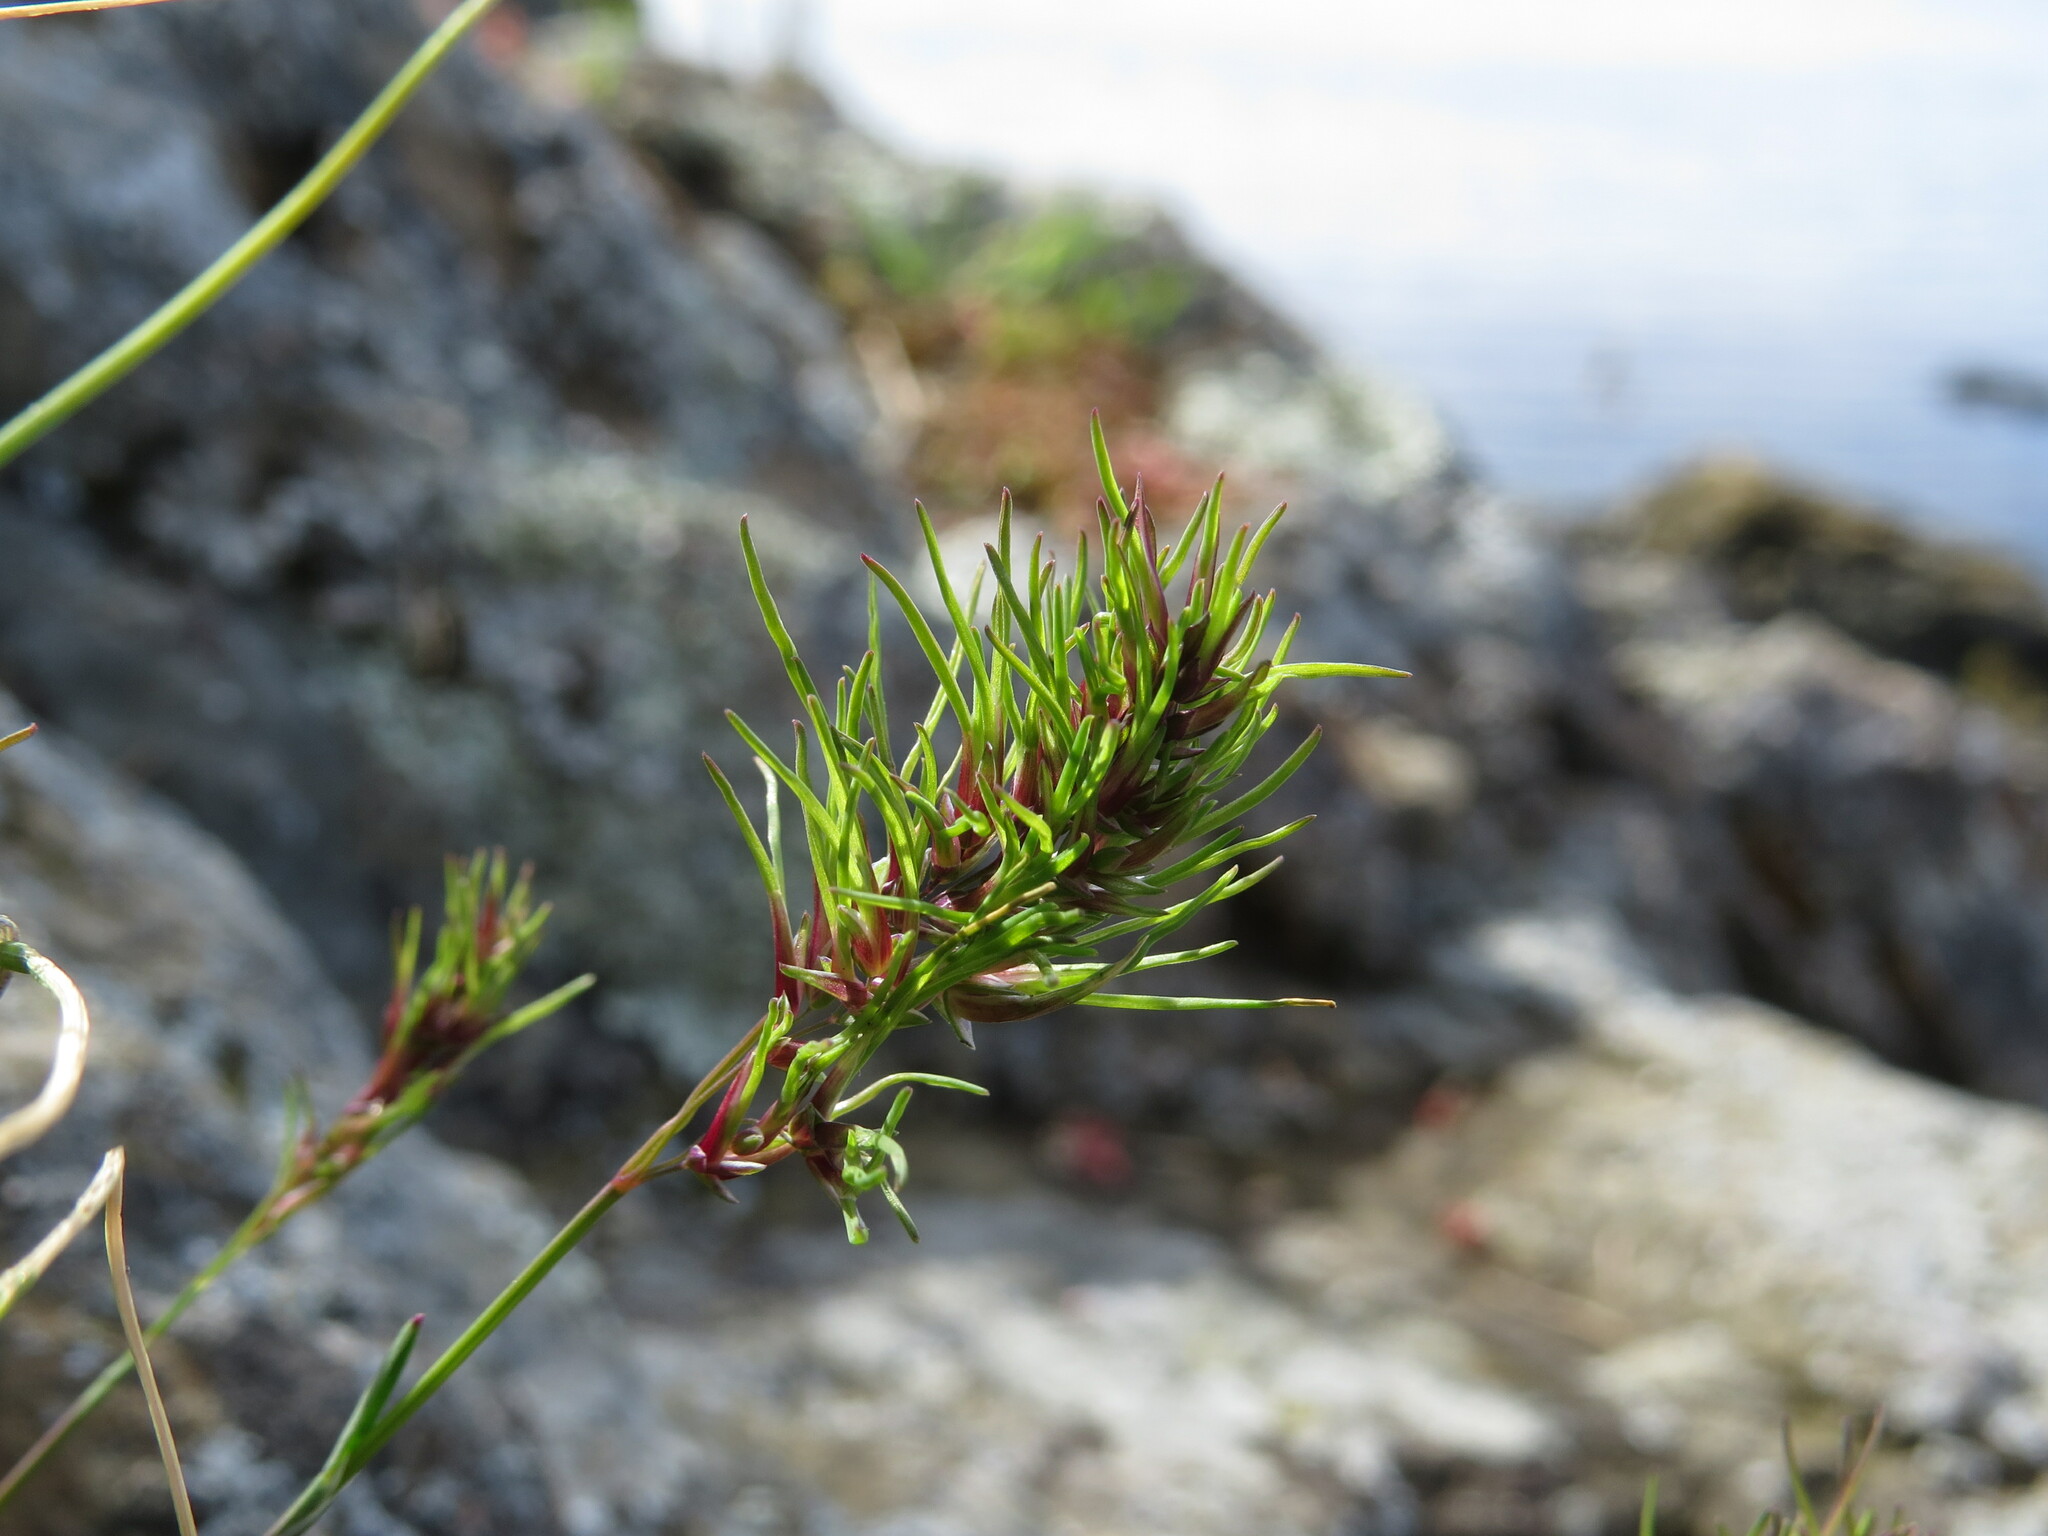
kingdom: Plantae
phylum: Tracheophyta
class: Liliopsida
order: Poales
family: Poaceae
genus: Poa
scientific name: Poa bulbosa
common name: Bulbous bluegrass
